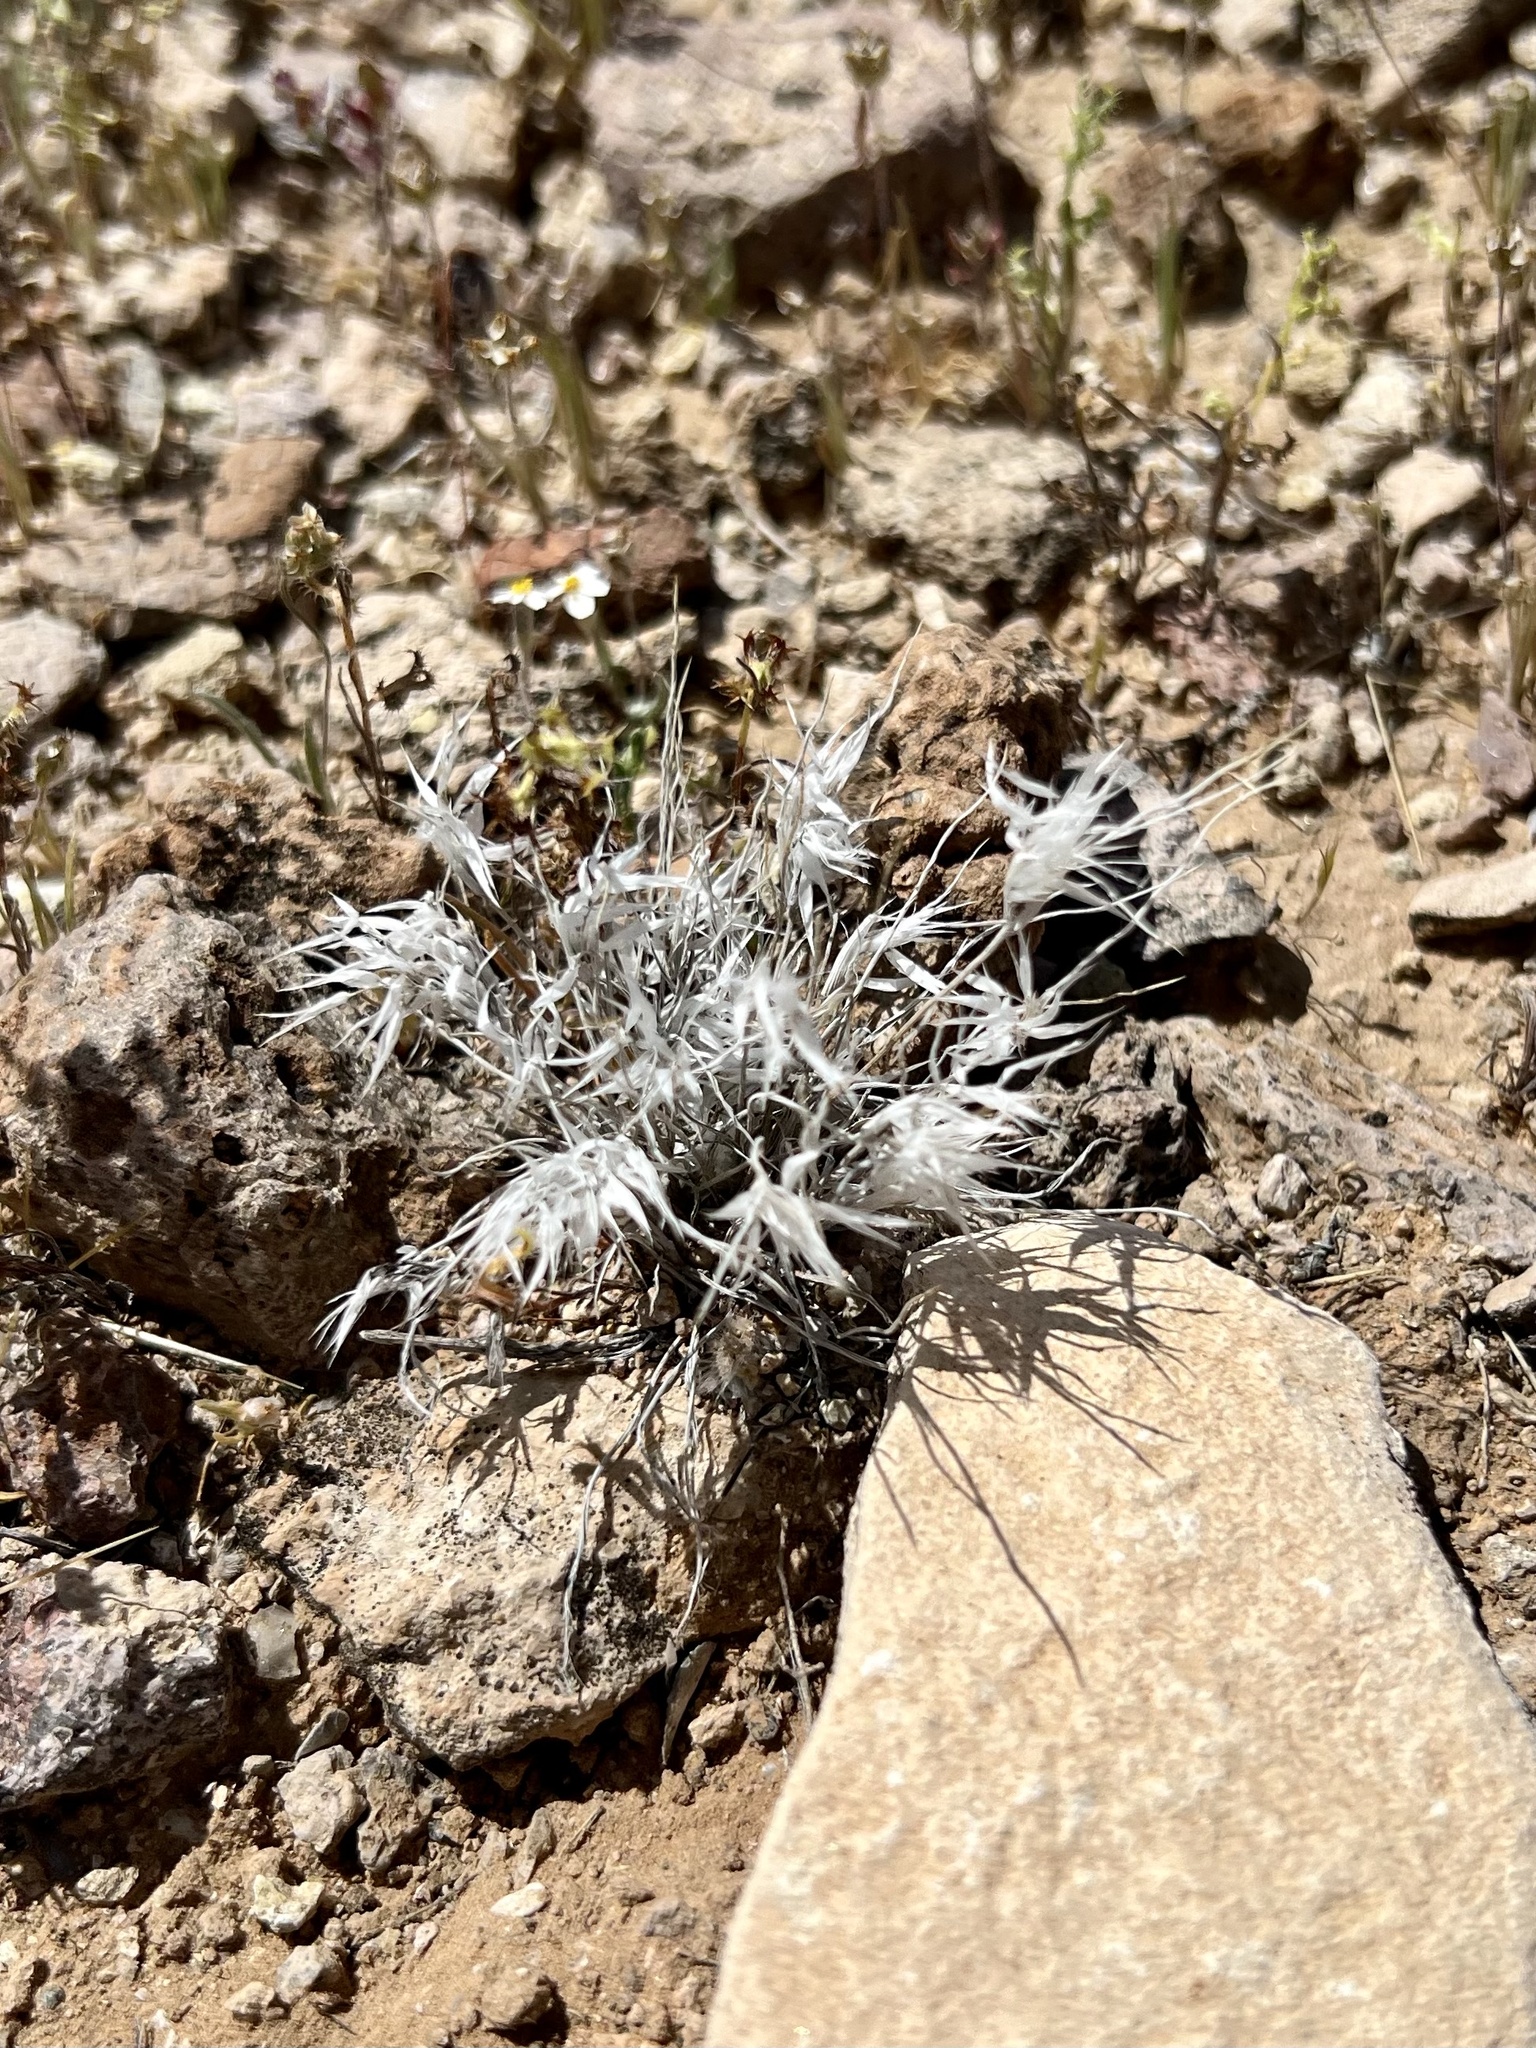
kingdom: Plantae
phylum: Tracheophyta
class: Liliopsida
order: Poales
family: Poaceae
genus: Dasyochloa
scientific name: Dasyochloa pulchella
